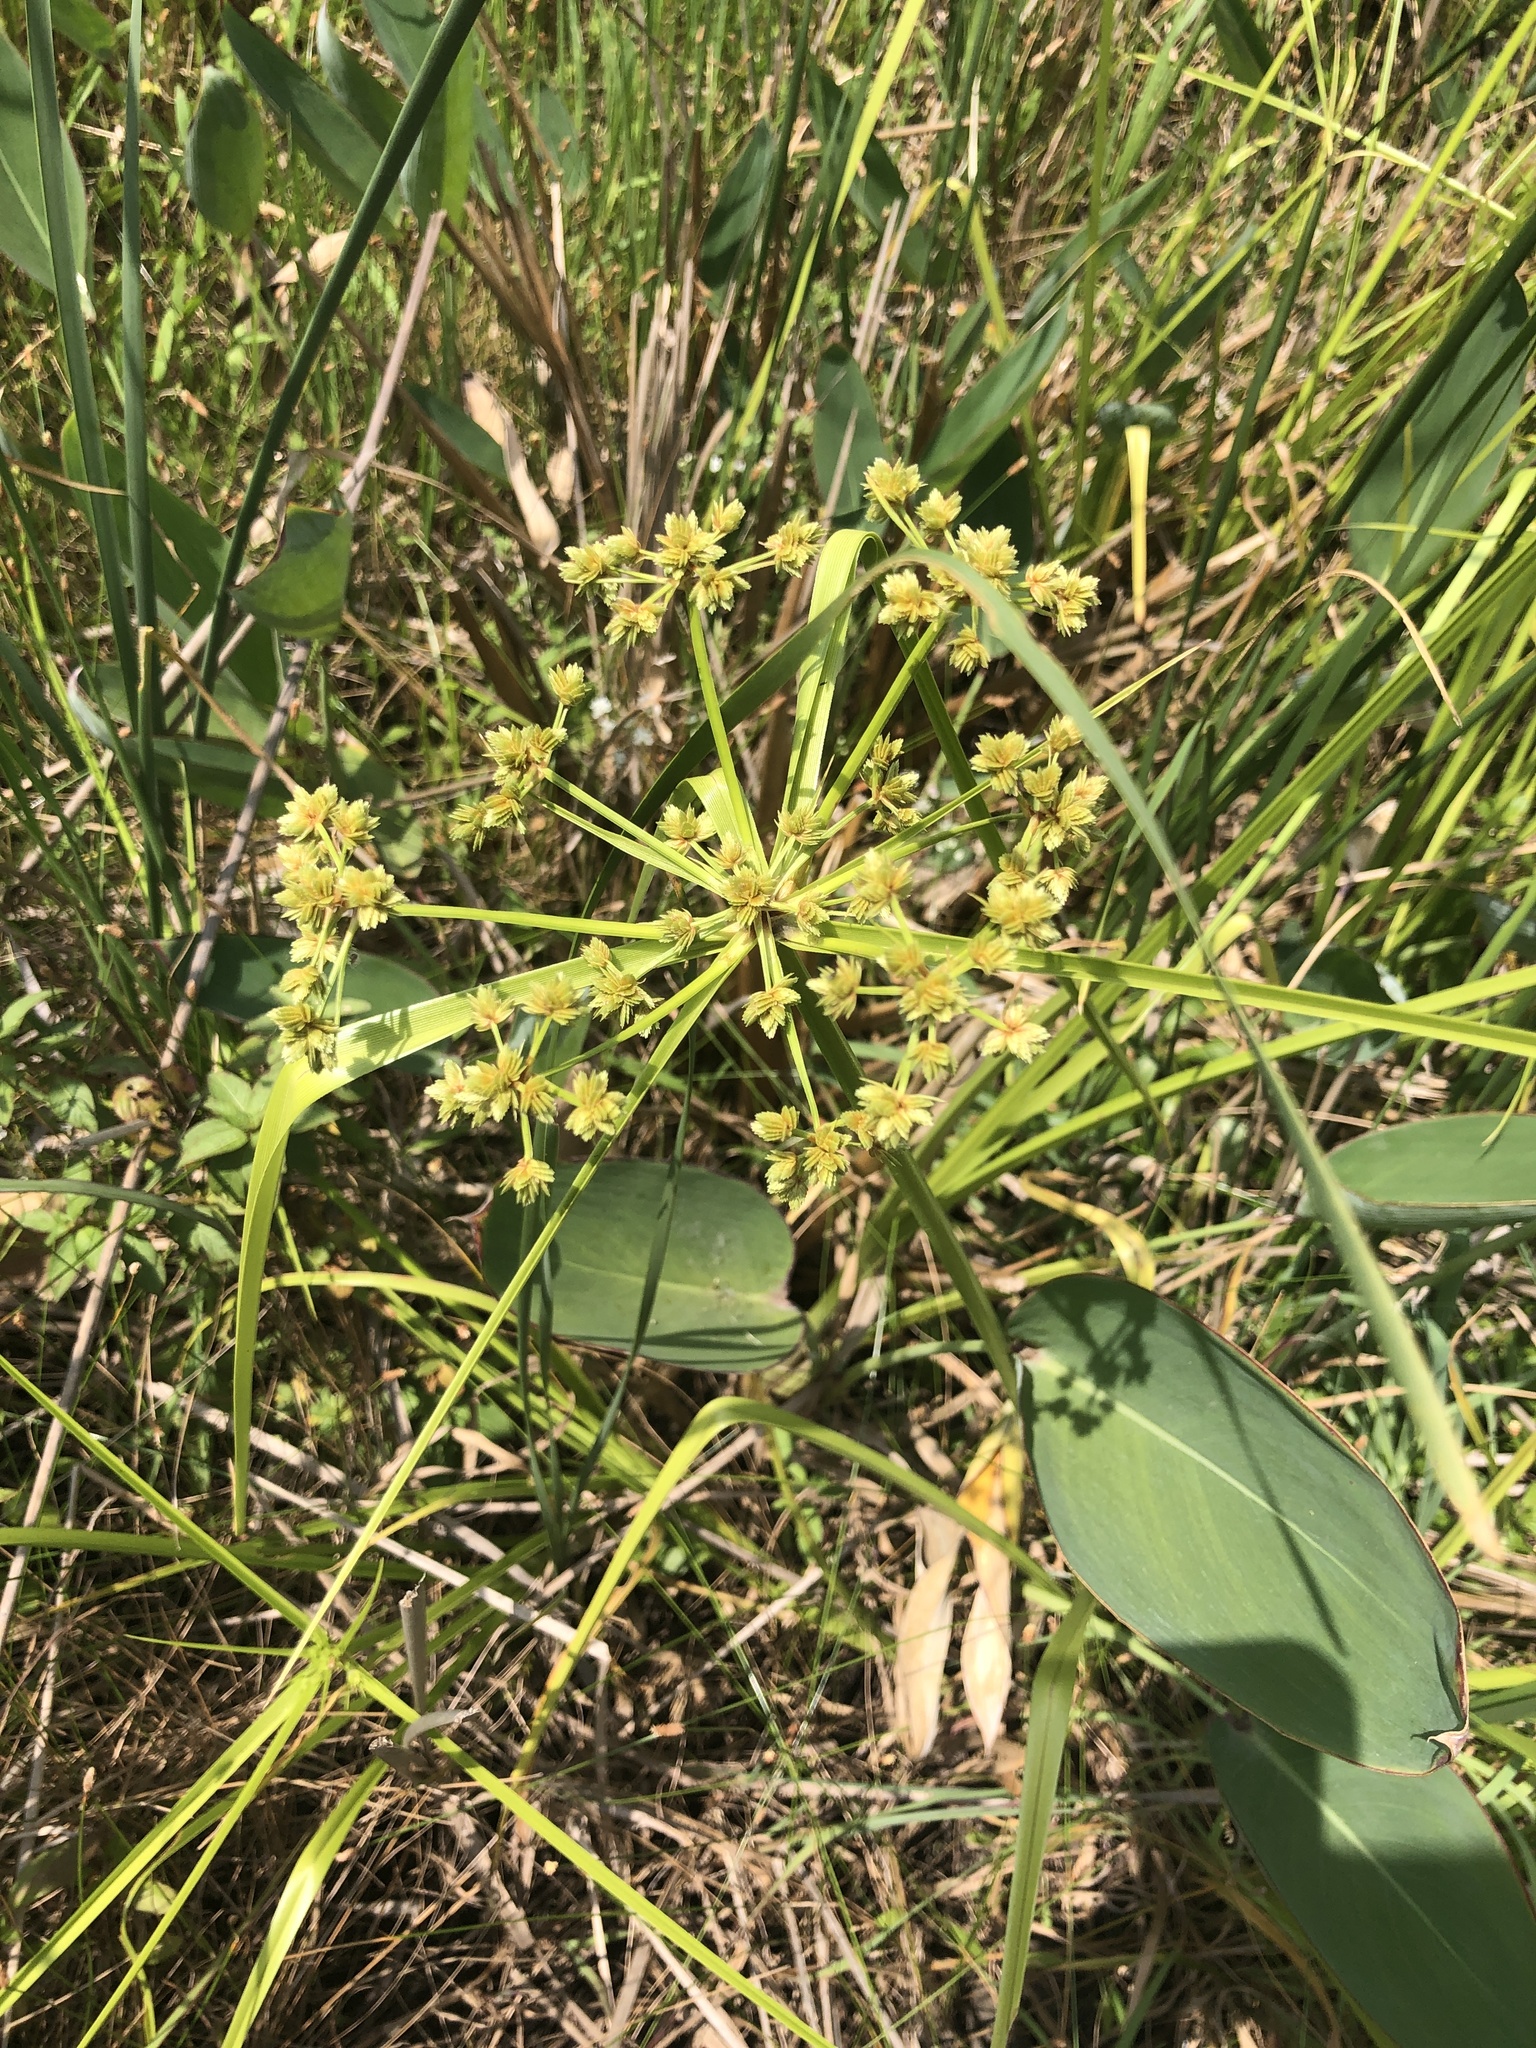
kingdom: Plantae
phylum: Tracheophyta
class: Liliopsida
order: Poales
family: Cyperaceae
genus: Cyperus
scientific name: Cyperus virens
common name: Green flatsedge
